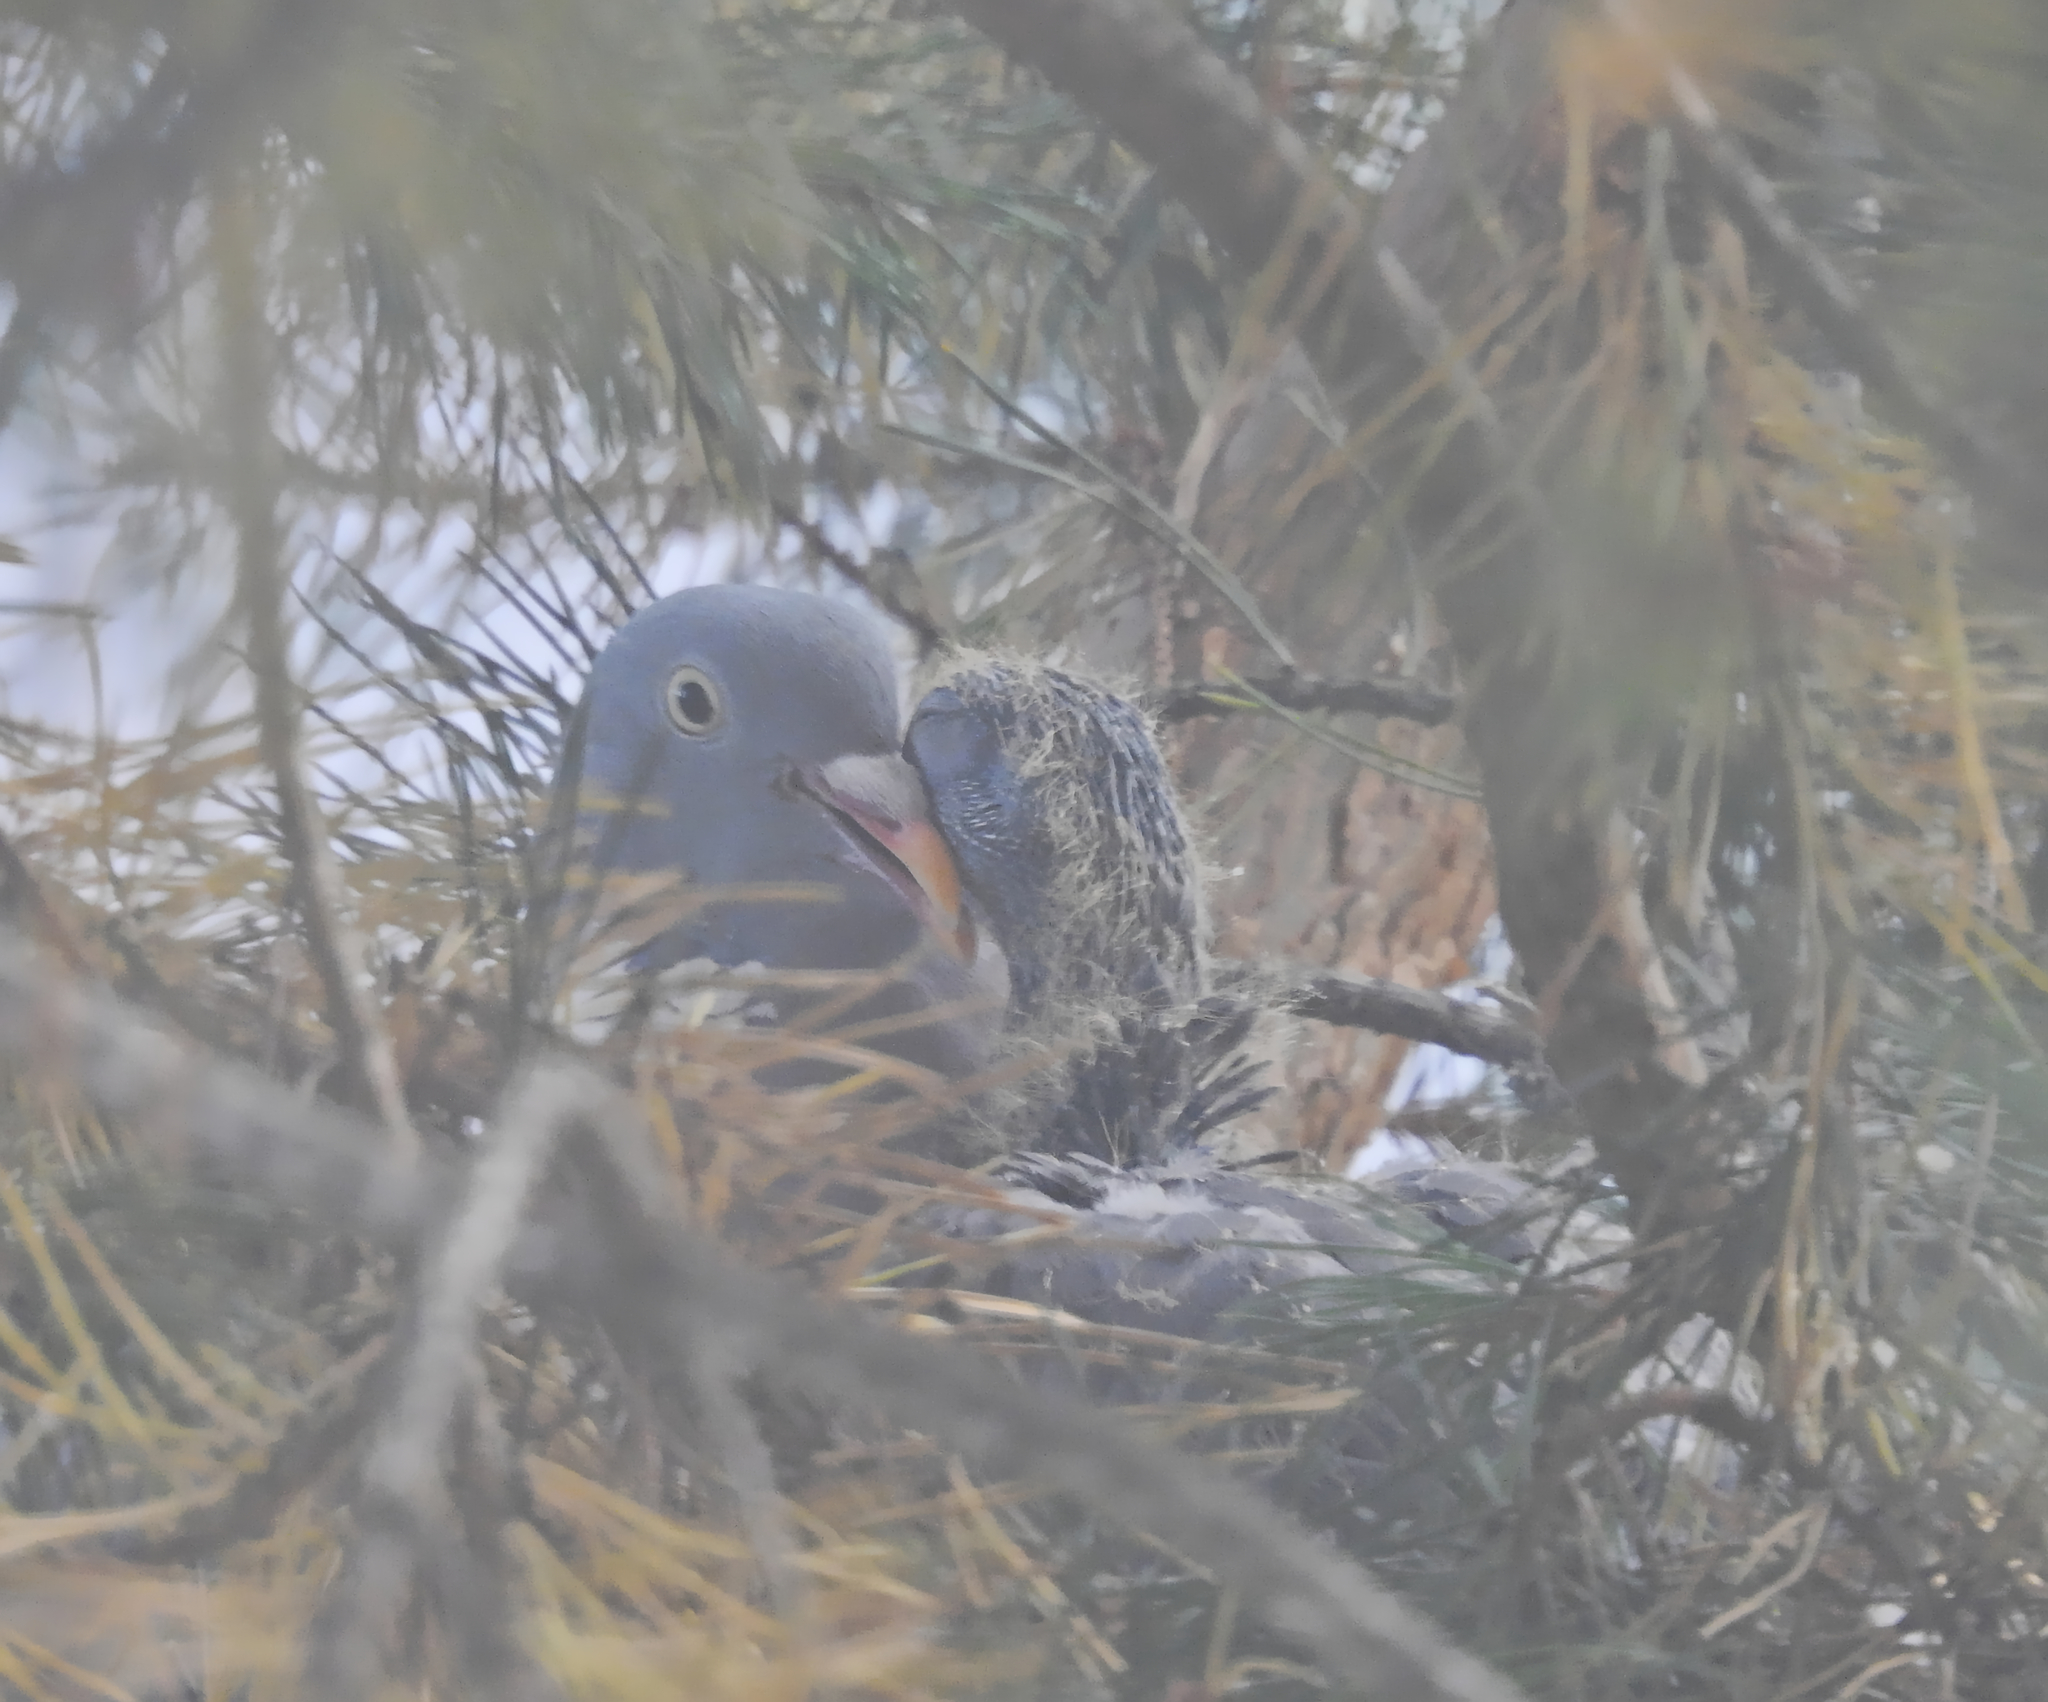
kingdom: Animalia
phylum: Chordata
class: Aves
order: Columbiformes
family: Columbidae
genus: Columba
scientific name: Columba palumbus
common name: Common wood pigeon
